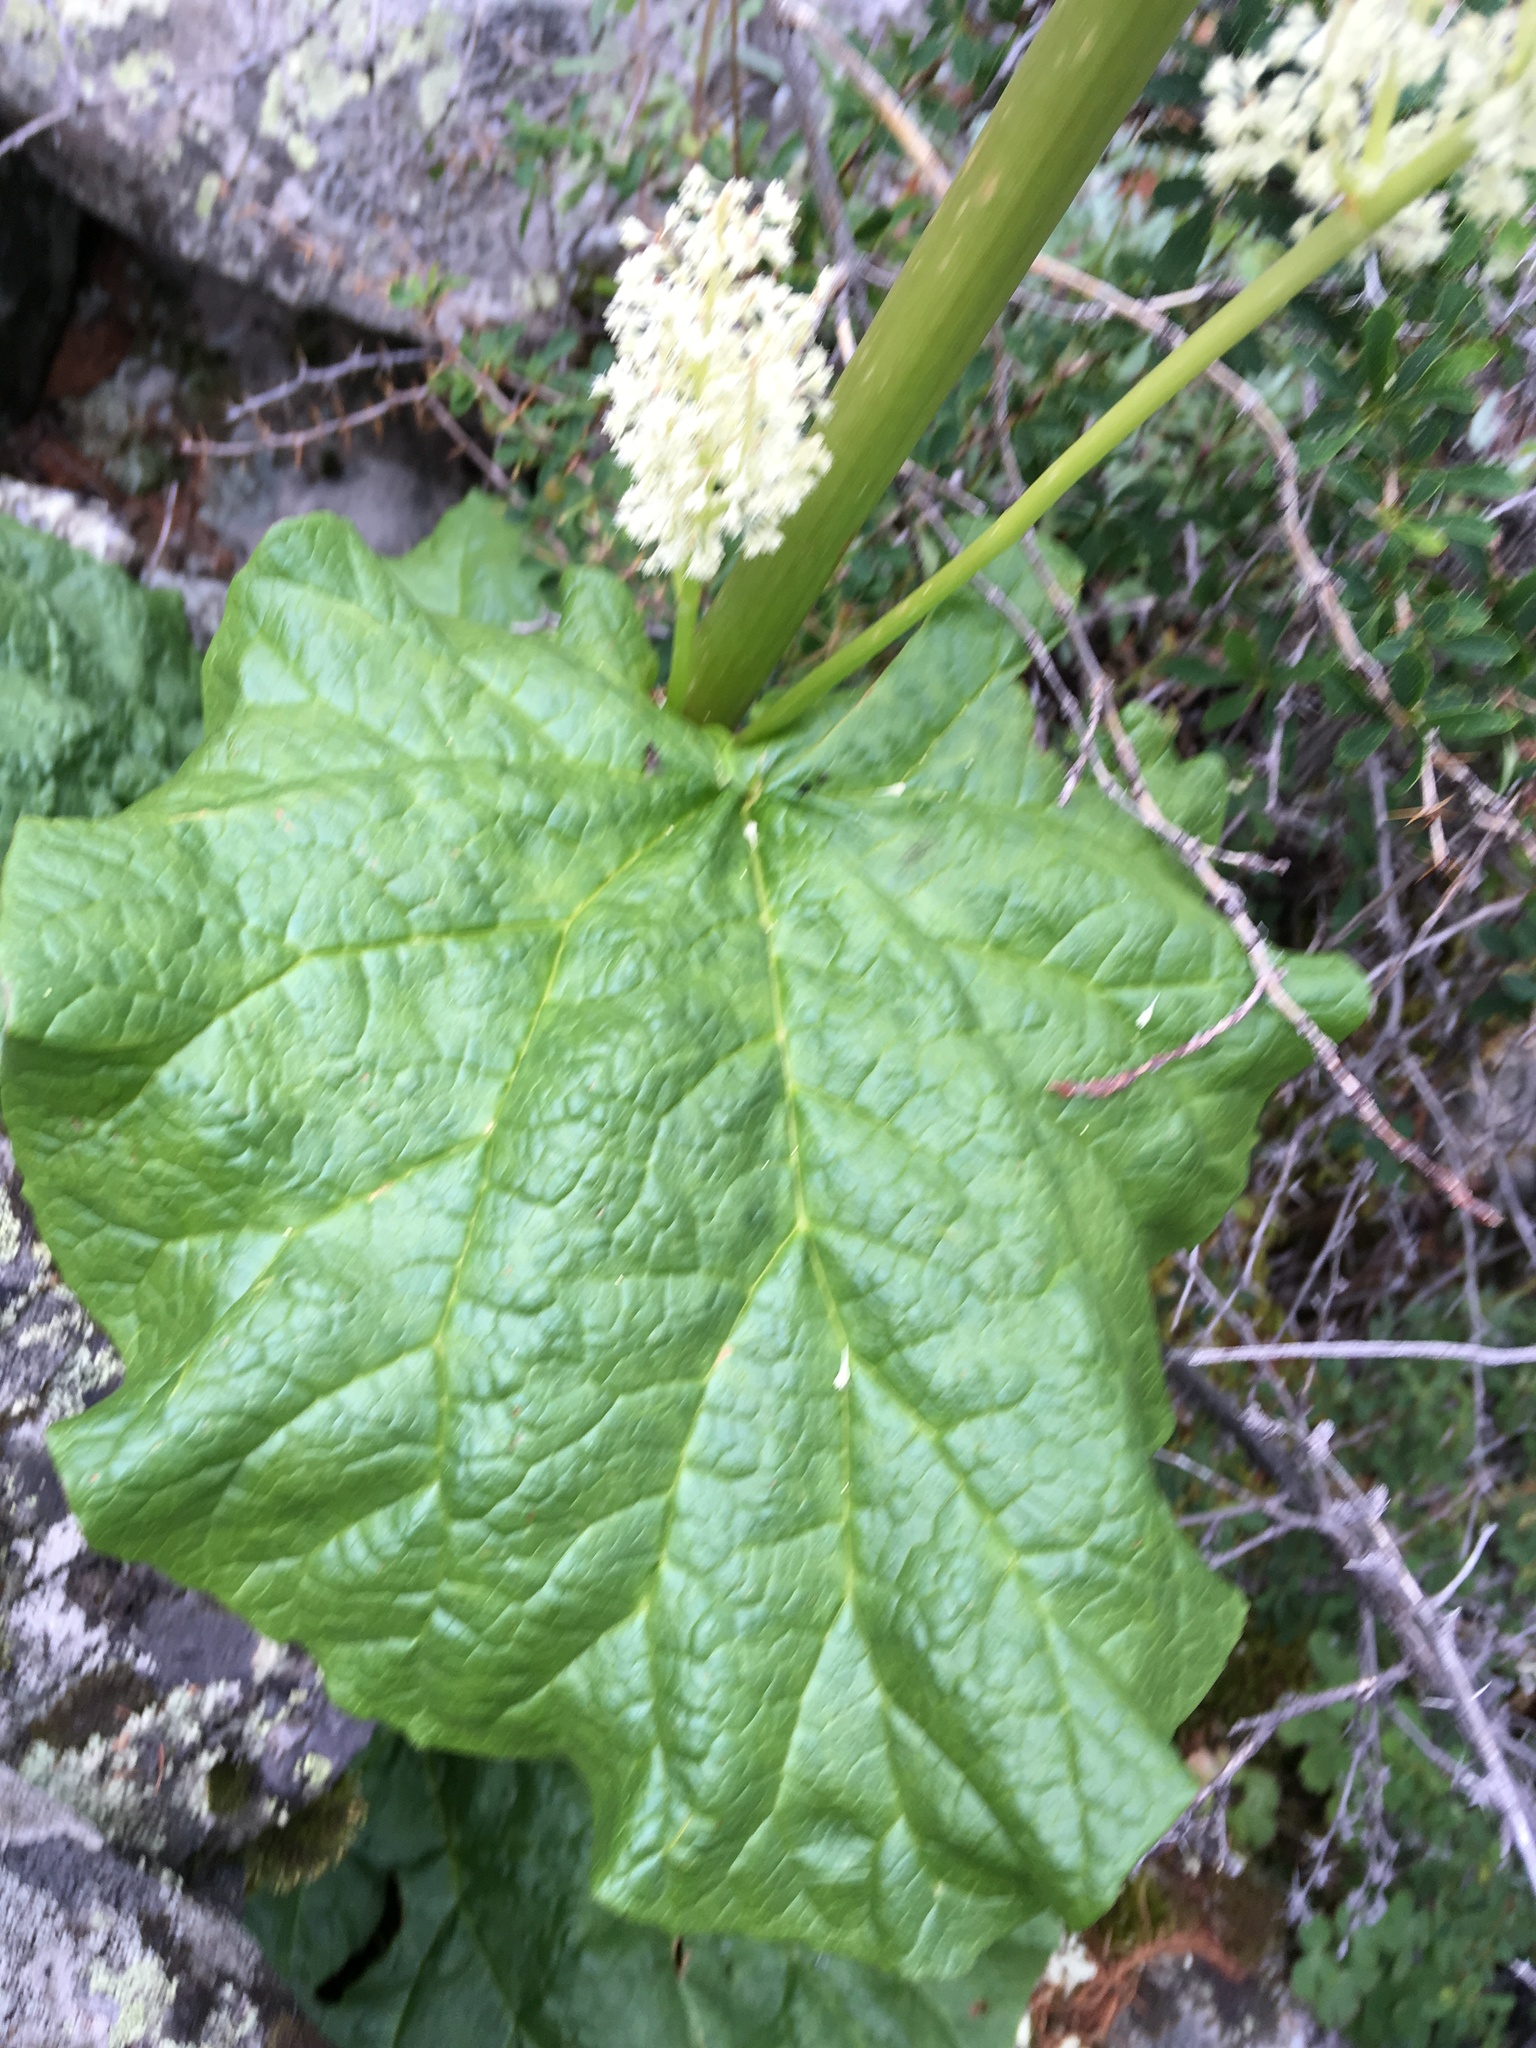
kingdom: Plantae
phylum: Tracheophyta
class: Magnoliopsida
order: Caryophyllales
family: Polygonaceae
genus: Rheum
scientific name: Rheum compactum
